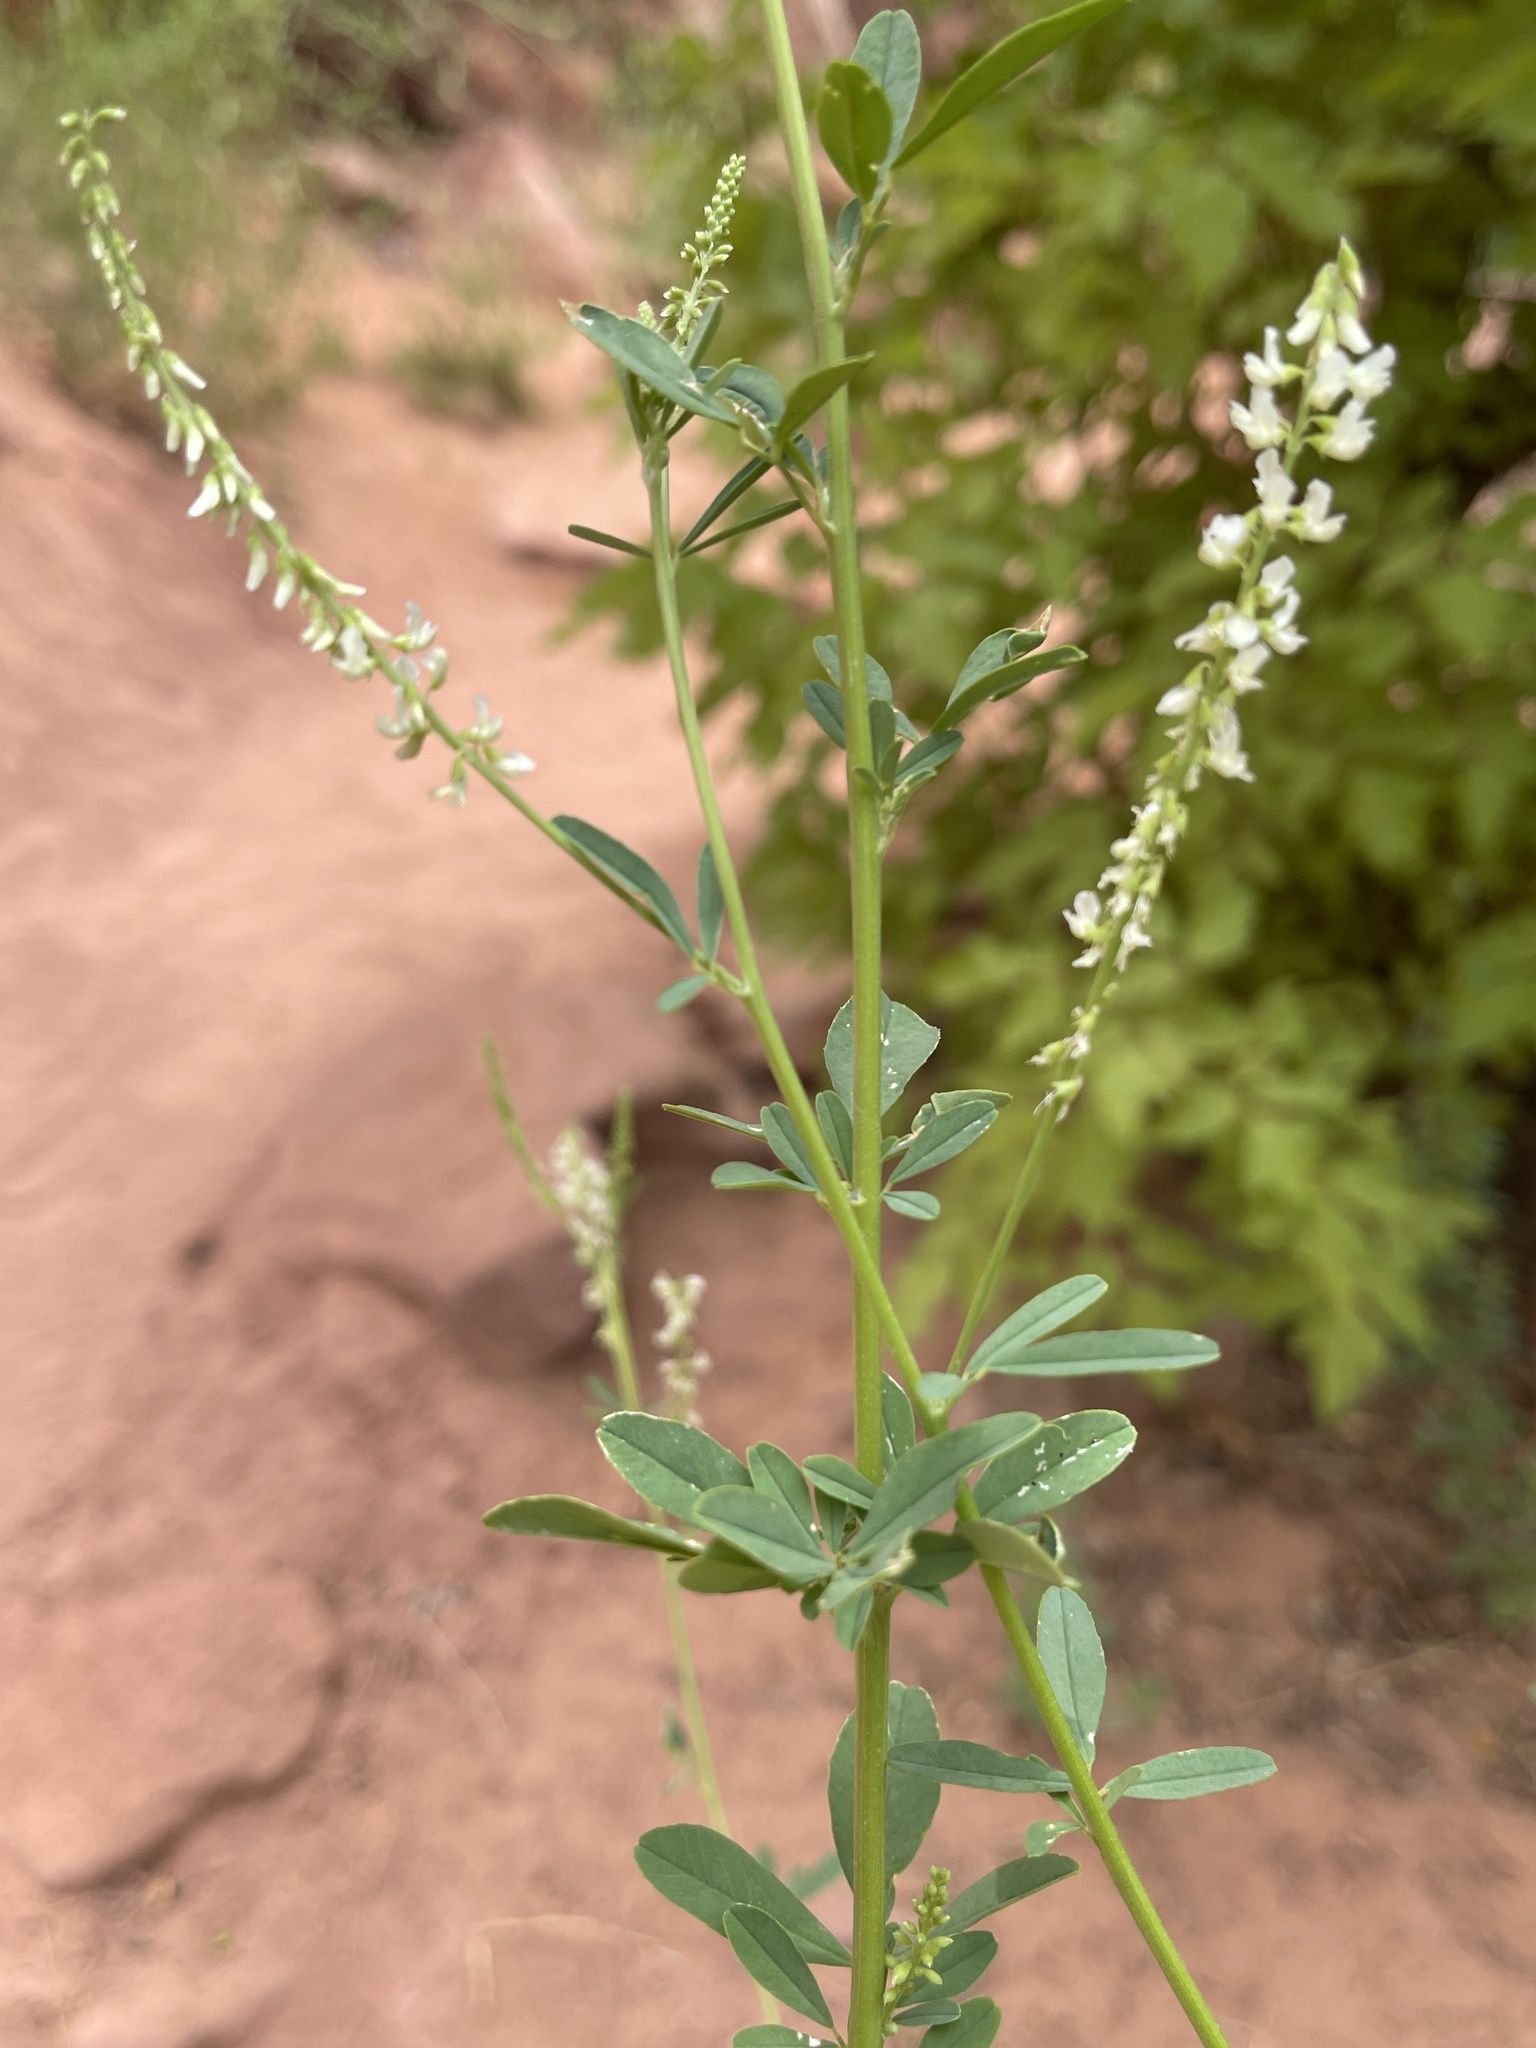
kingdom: Plantae
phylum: Tracheophyta
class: Magnoliopsida
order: Fabales
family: Fabaceae
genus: Melilotus
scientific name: Melilotus albus
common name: White melilot
